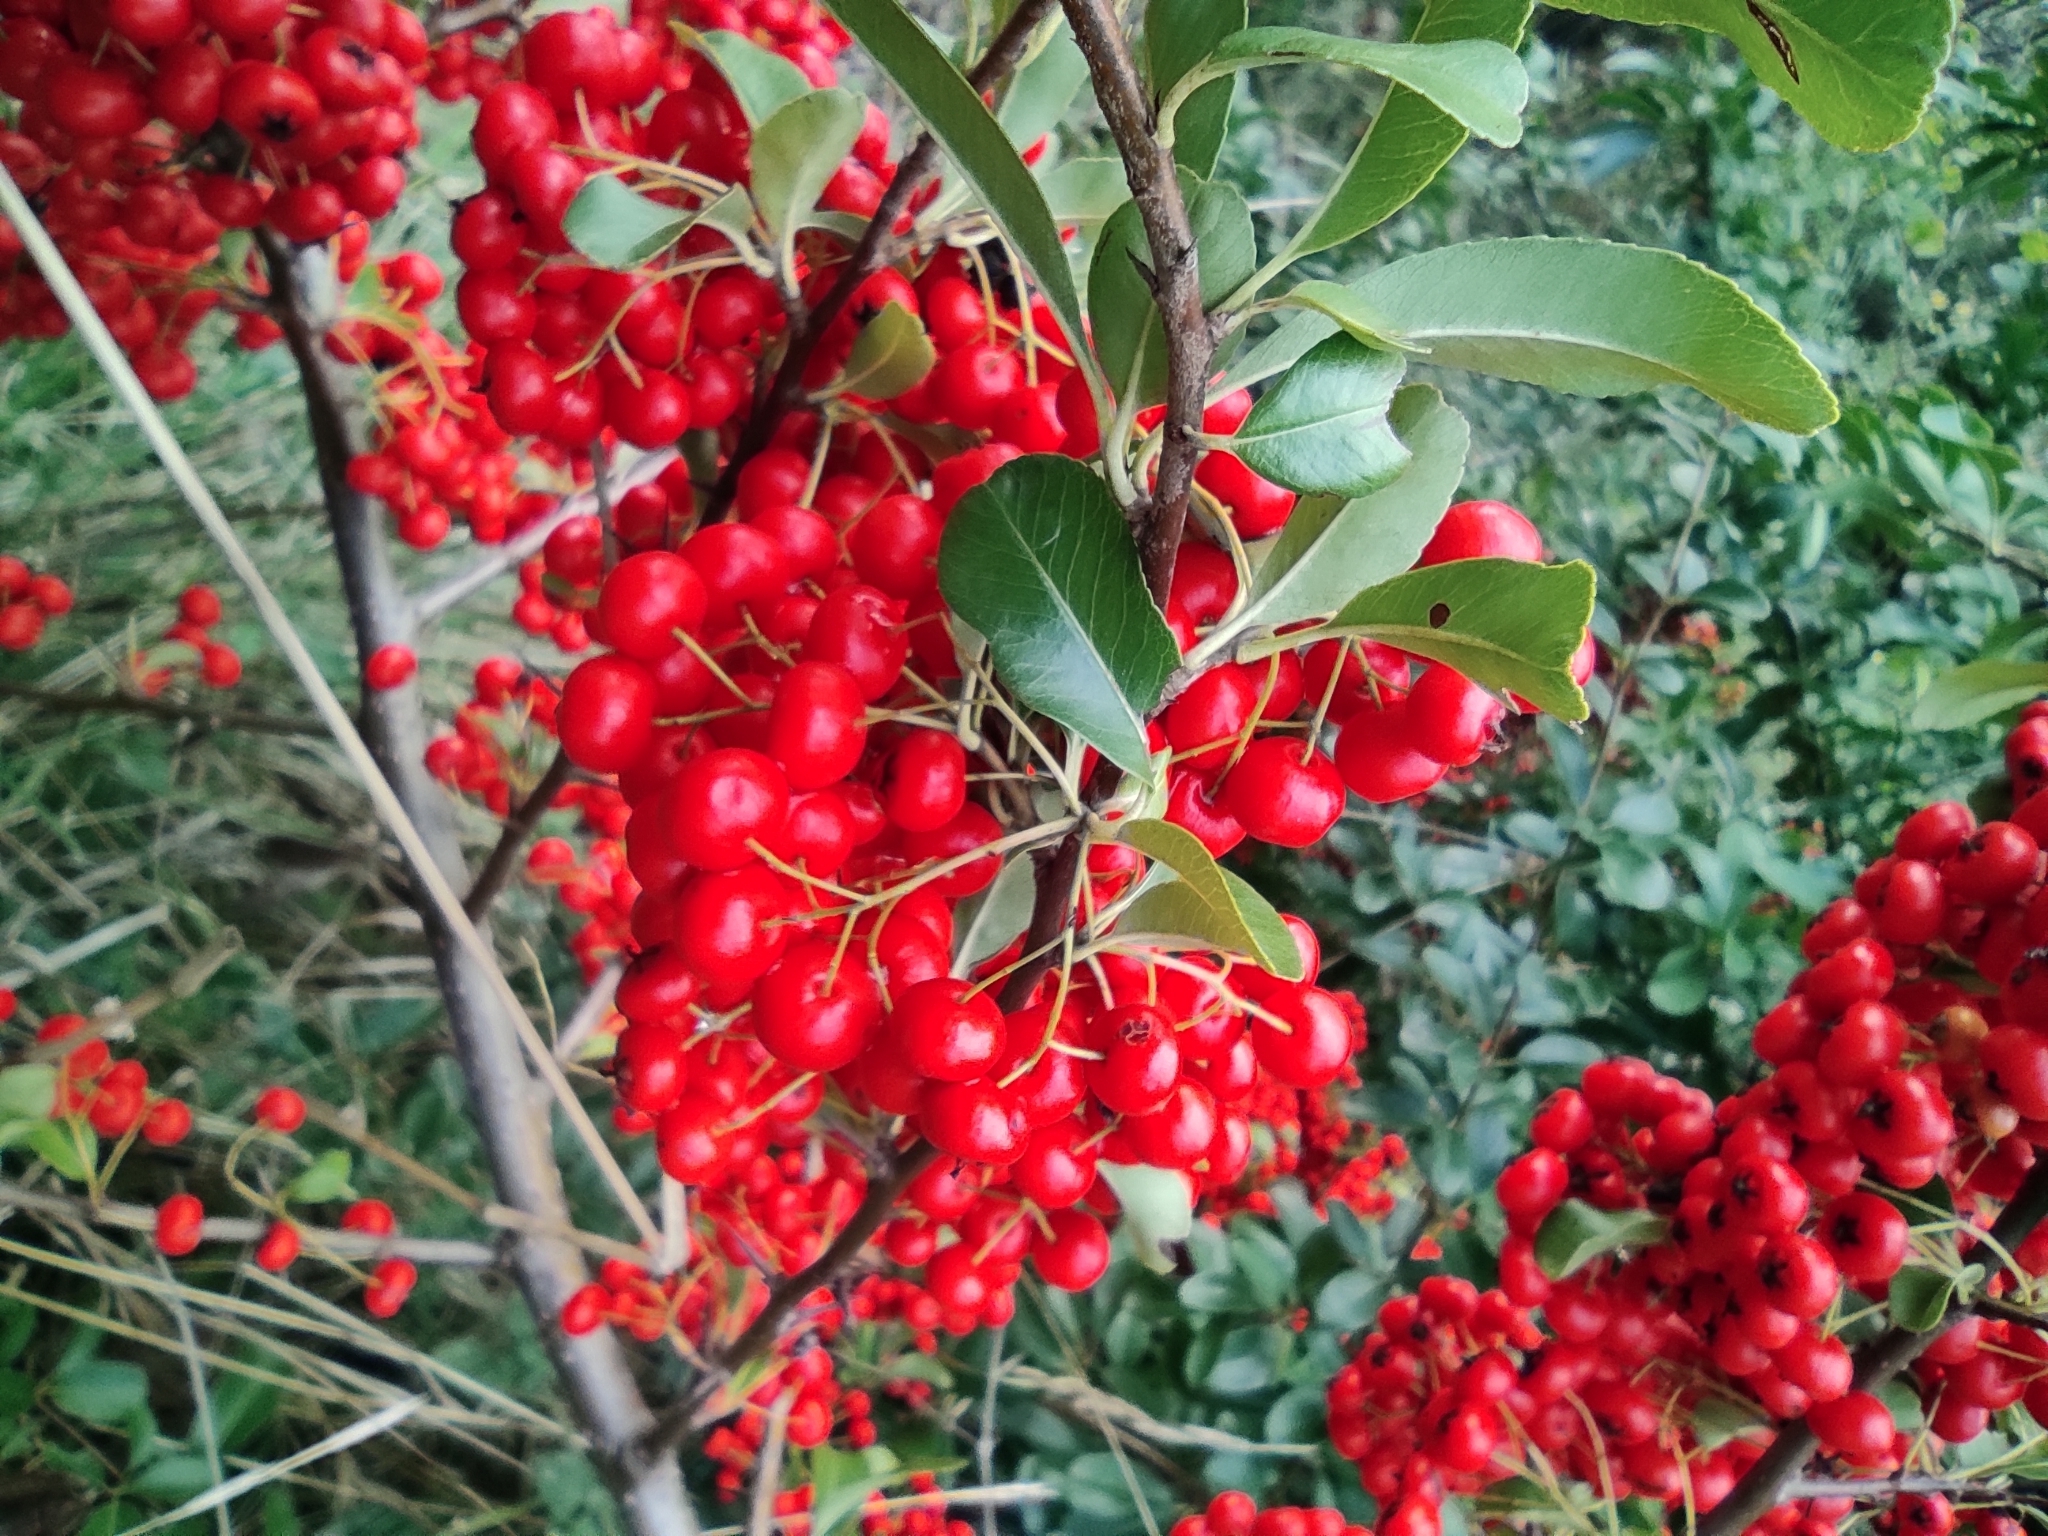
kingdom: Plantae
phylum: Tracheophyta
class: Magnoliopsida
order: Rosales
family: Rosaceae
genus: Pyracantha
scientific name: Pyracantha coccinea
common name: Firethorn
